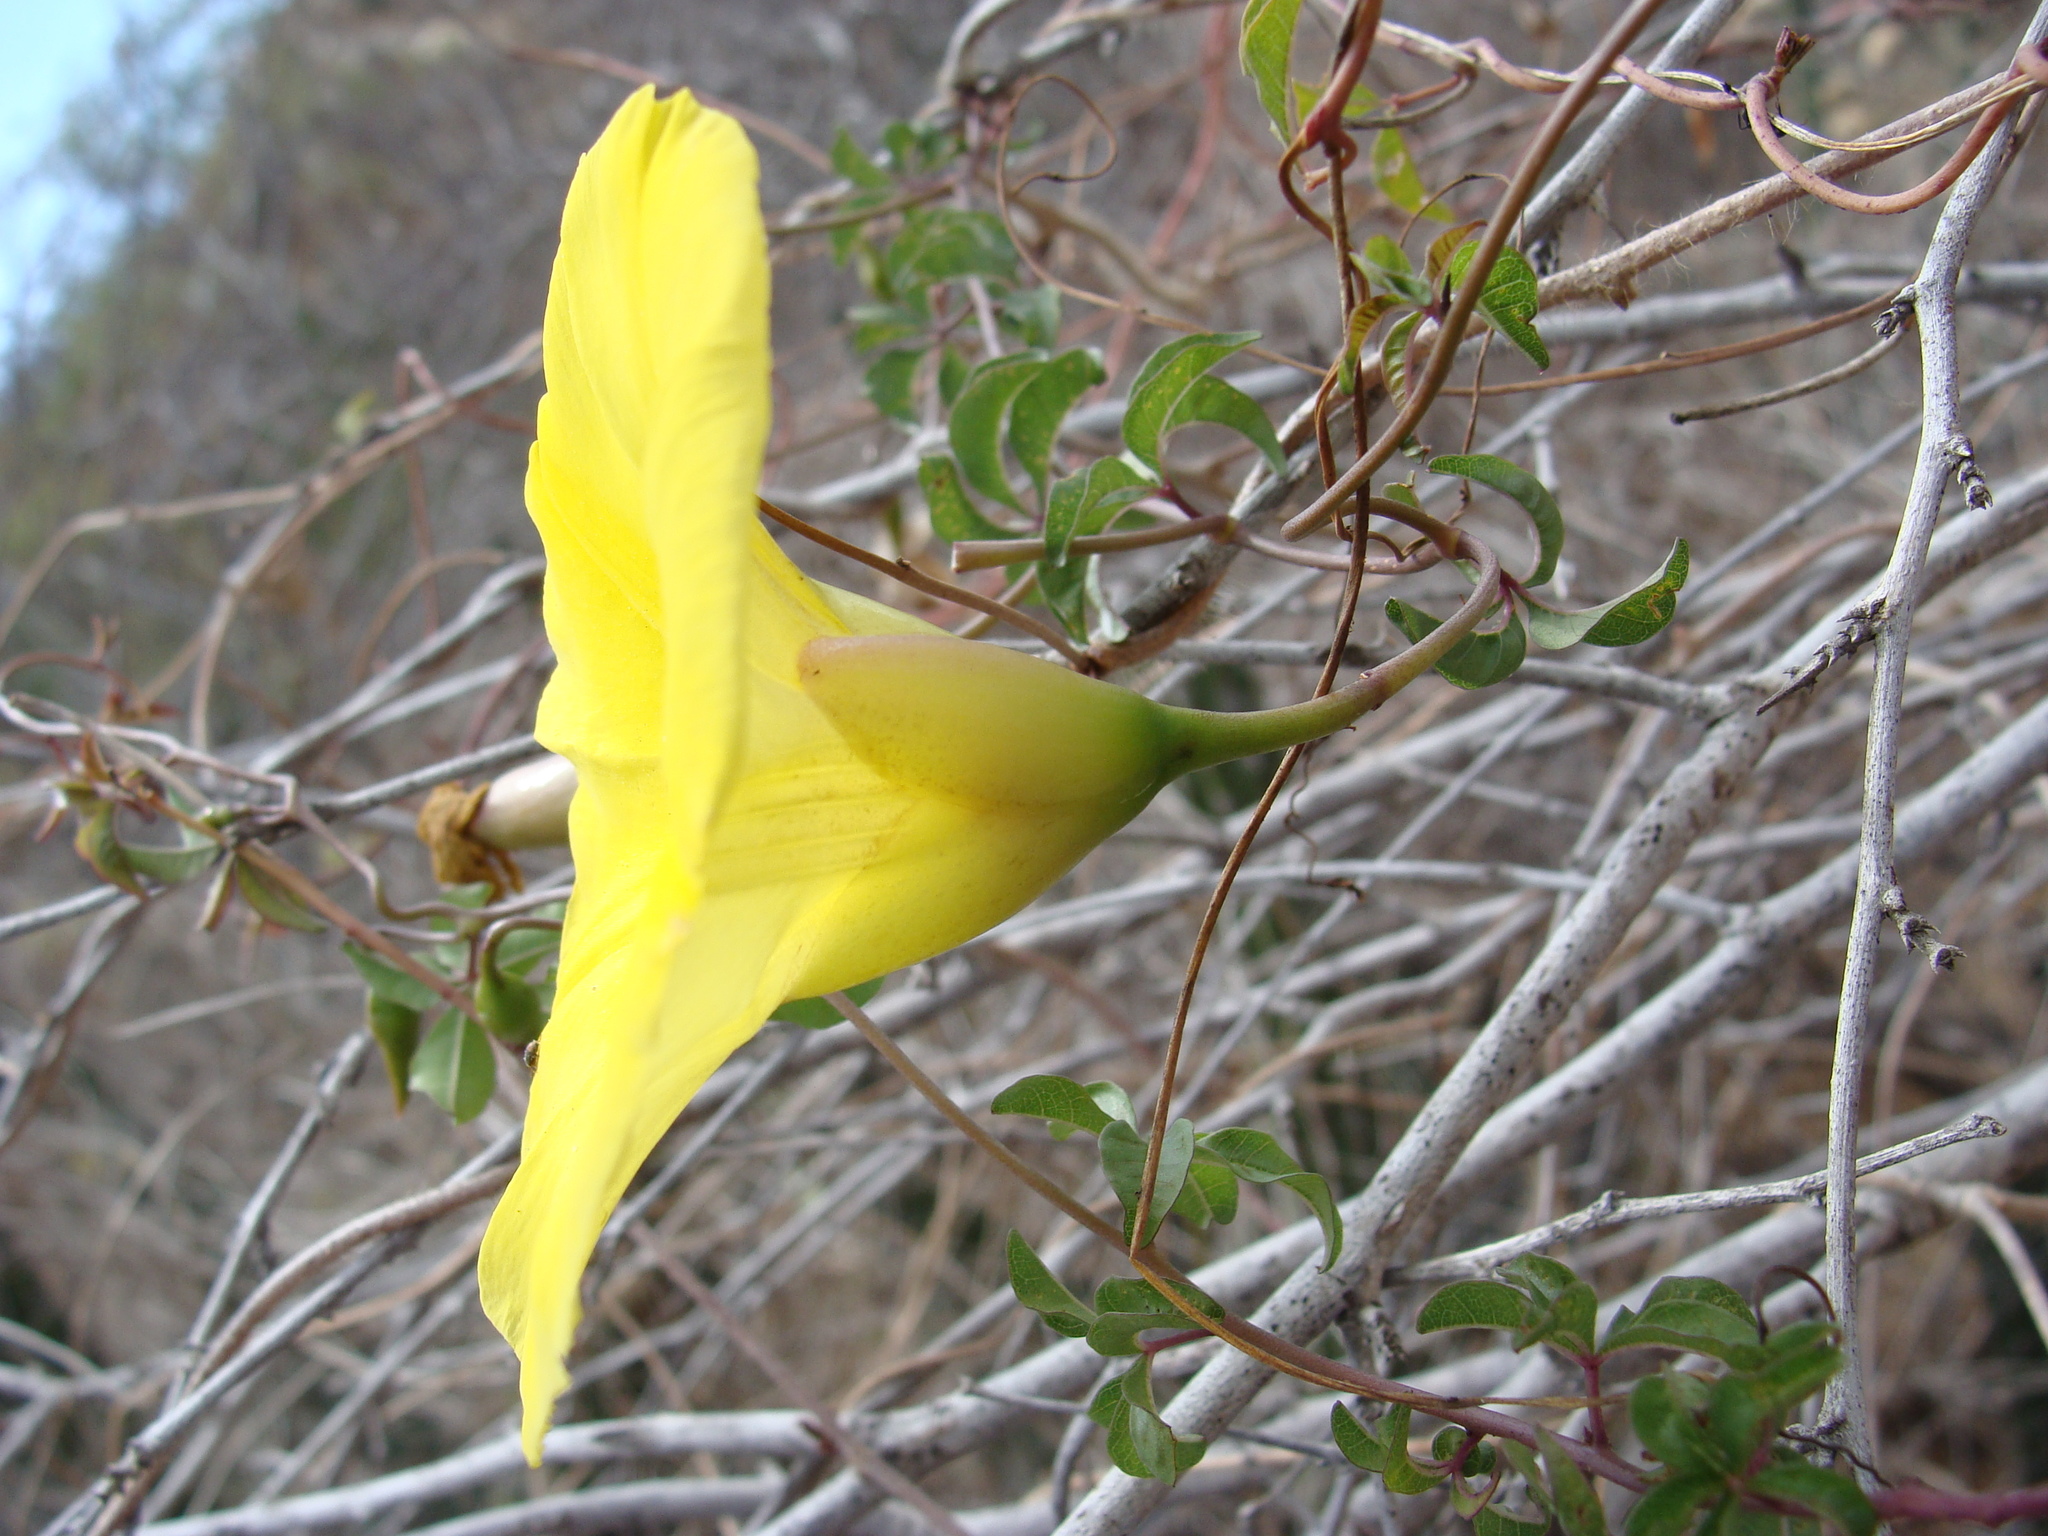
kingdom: Plantae
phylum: Tracheophyta
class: Magnoliopsida
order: Solanales
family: Convolvulaceae
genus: Distimake
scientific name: Distimake aureus
